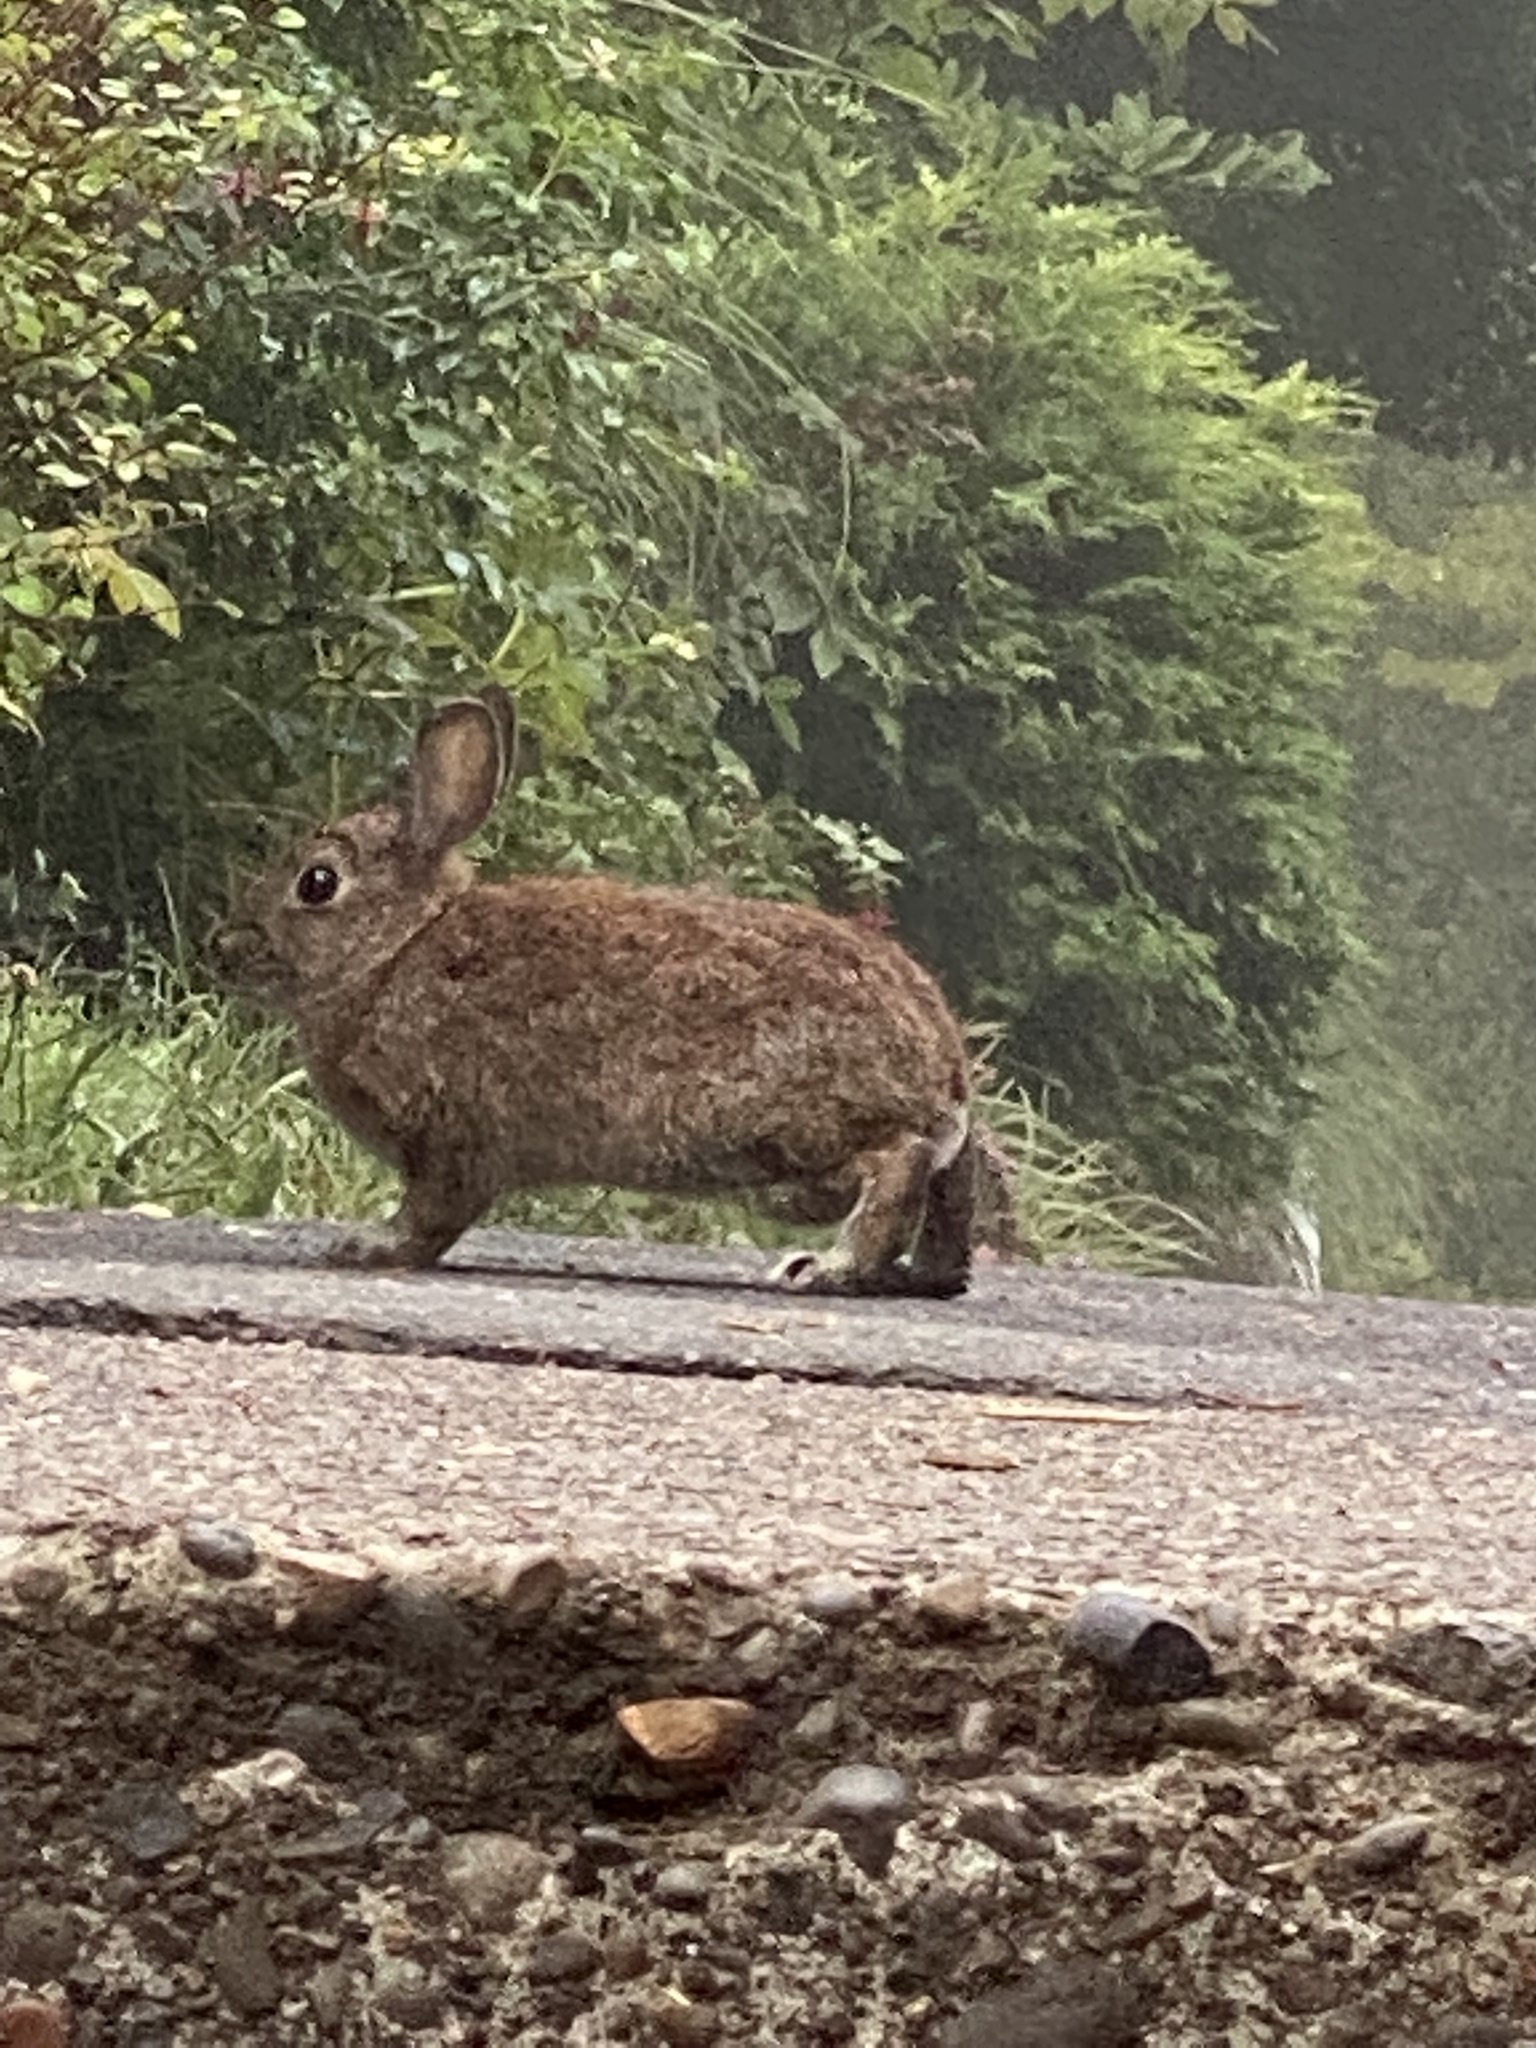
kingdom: Animalia
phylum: Chordata
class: Mammalia
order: Lagomorpha
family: Leporidae
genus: Sylvilagus
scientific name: Sylvilagus bachmani
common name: Brush rabbit
